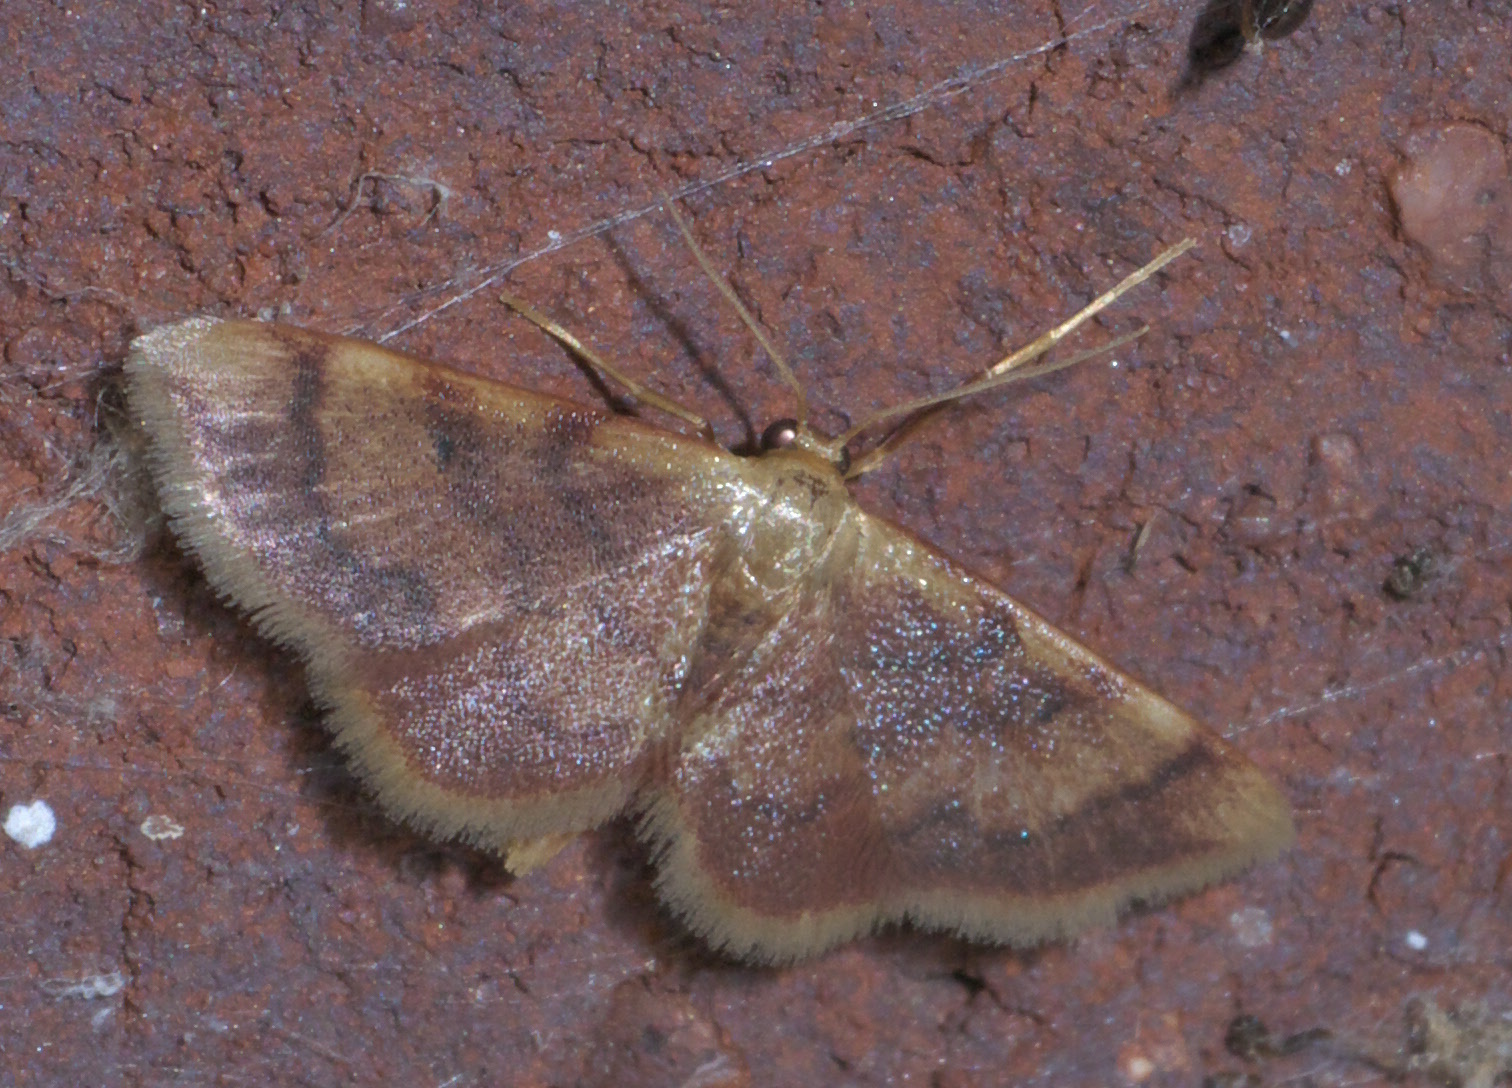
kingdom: Animalia
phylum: Arthropoda
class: Insecta
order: Lepidoptera
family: Geometridae
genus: Idaea
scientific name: Idaea demissaria
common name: Red-bordered wave
